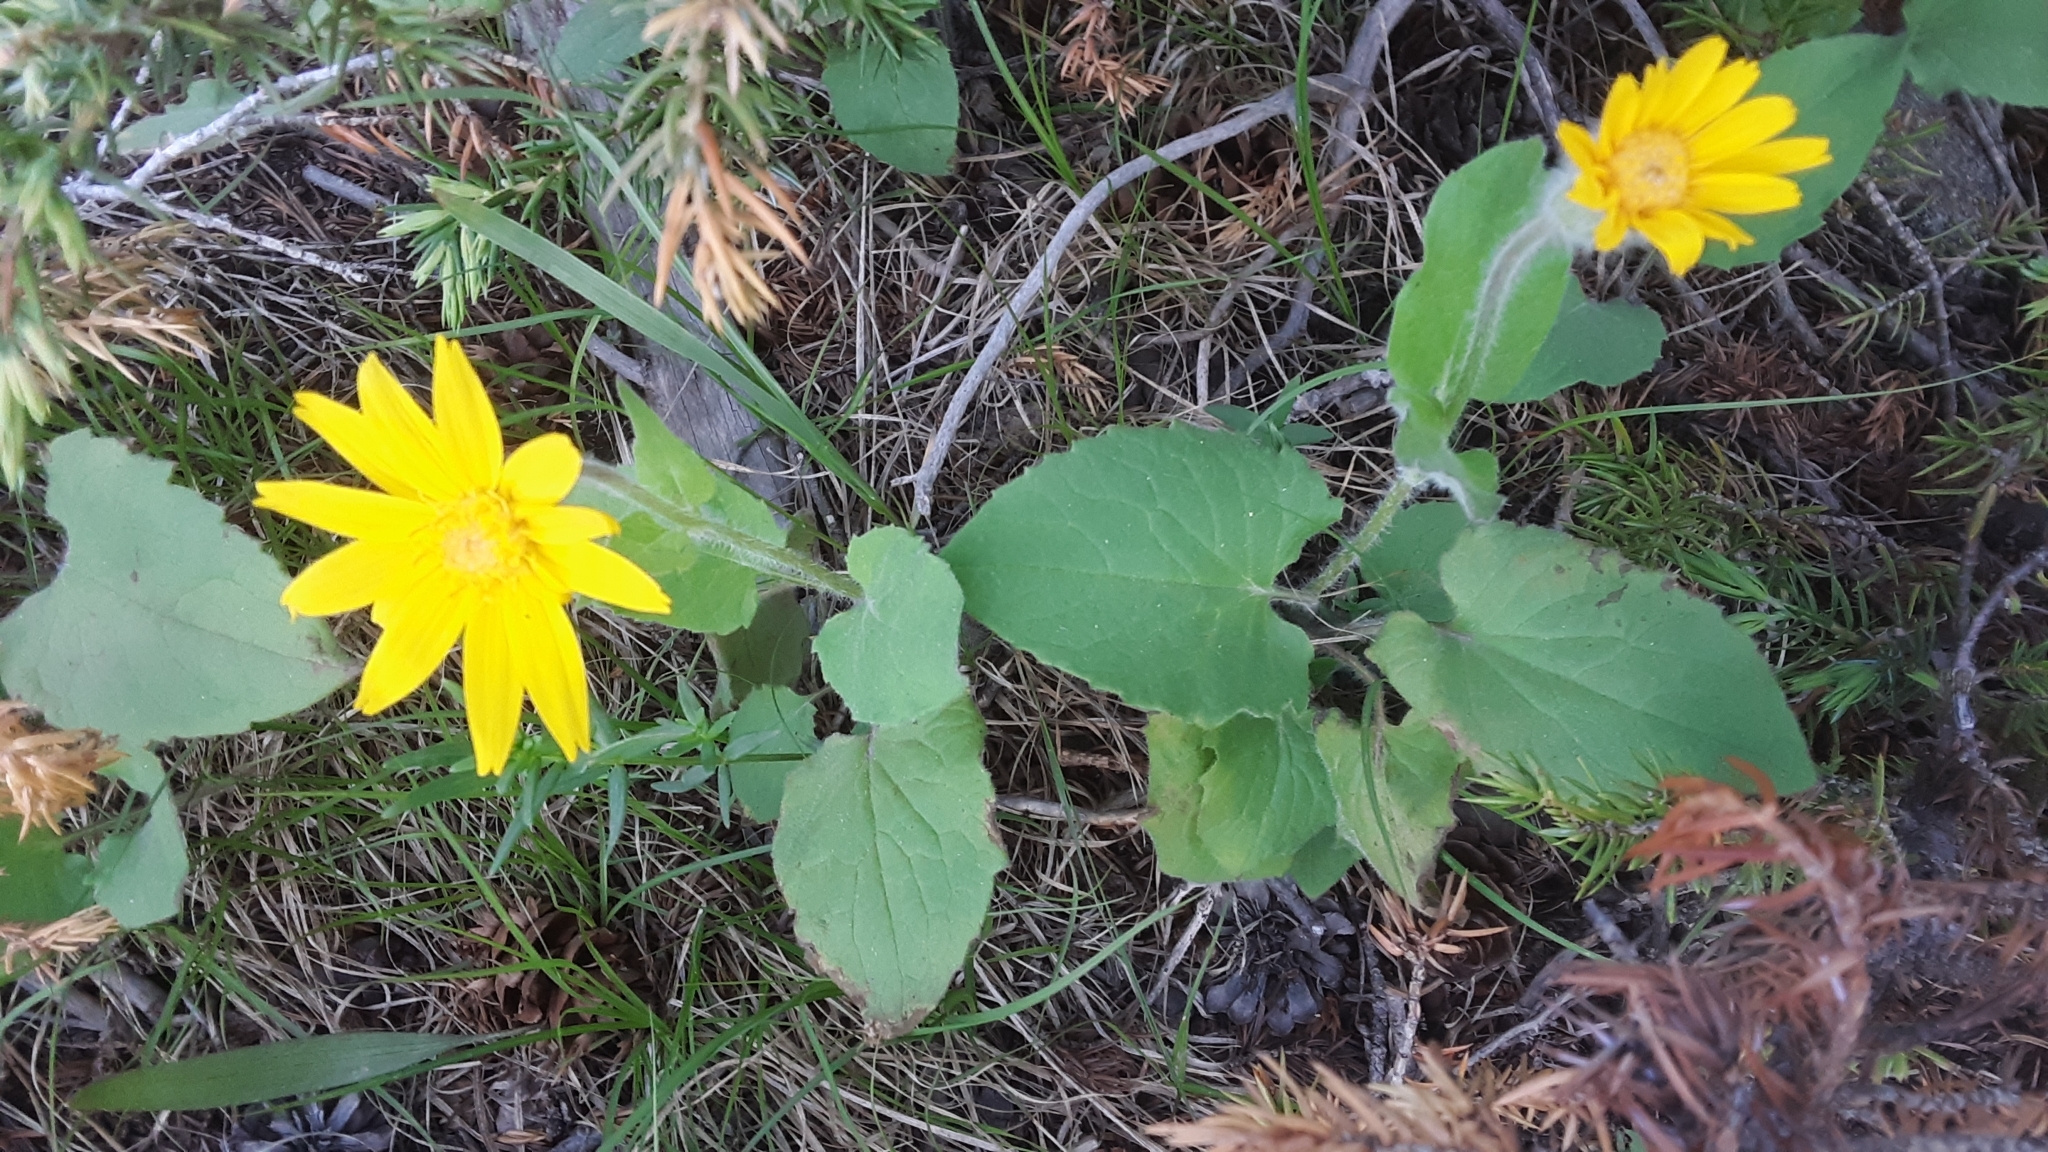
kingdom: Plantae
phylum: Tracheophyta
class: Magnoliopsida
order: Asterales
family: Asteraceae
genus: Arnica
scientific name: Arnica cordifolia
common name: Heart-leaf arnica
